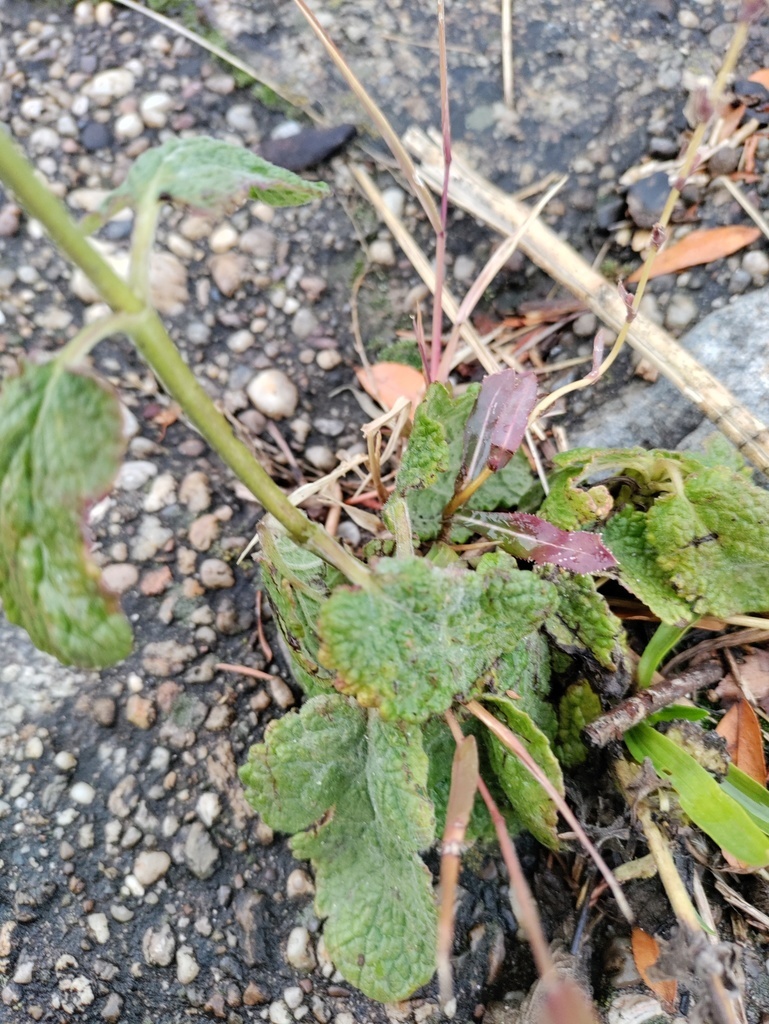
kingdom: Plantae
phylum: Tracheophyta
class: Magnoliopsida
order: Lamiales
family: Lamiaceae
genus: Salvia
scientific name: Salvia verticillata
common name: Whorled clary
